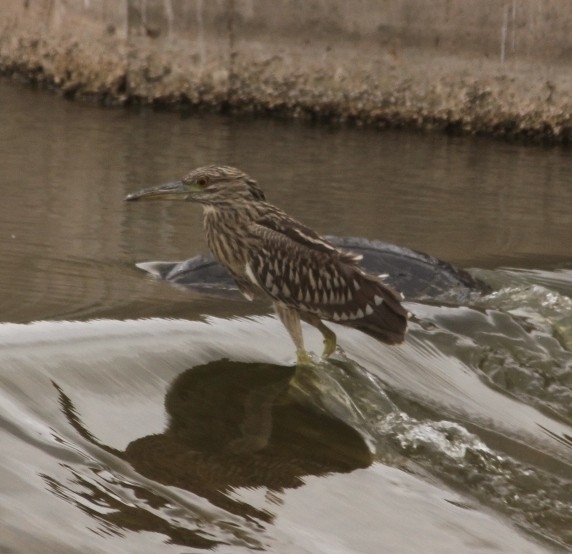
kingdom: Animalia
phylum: Chordata
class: Aves
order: Pelecaniformes
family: Ardeidae
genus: Nycticorax
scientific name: Nycticorax nycticorax
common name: Black-crowned night heron
